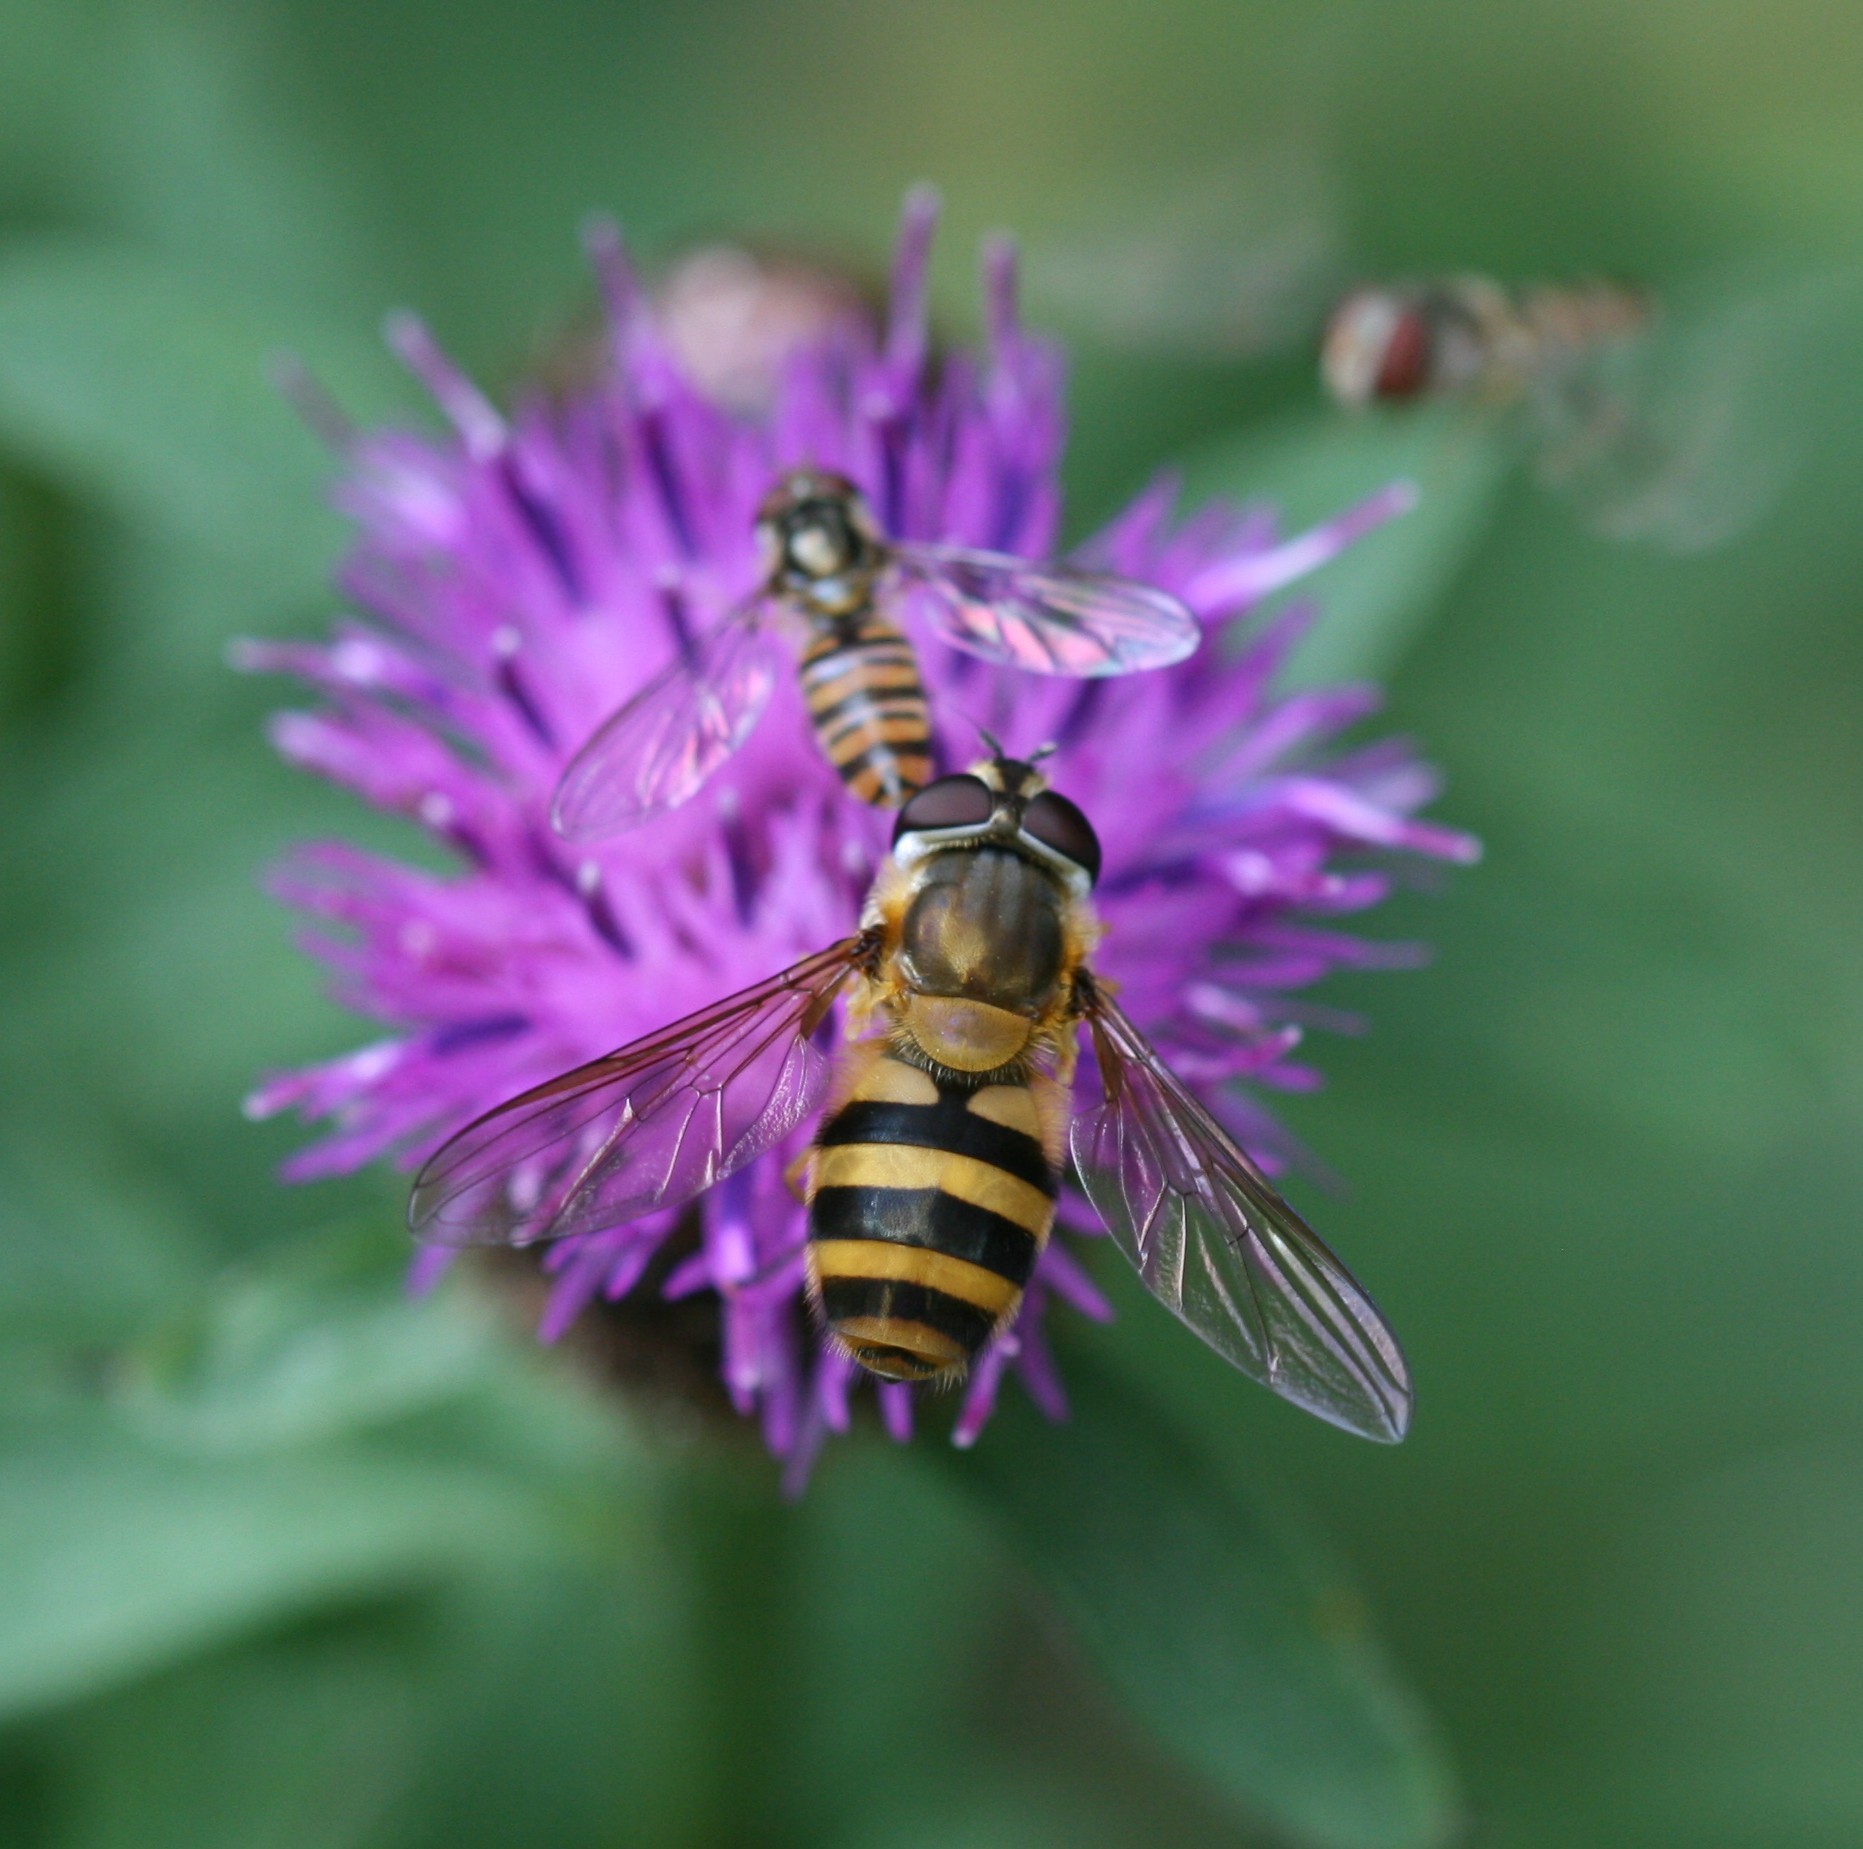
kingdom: Animalia
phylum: Arthropoda
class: Insecta
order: Diptera
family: Syrphidae
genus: Epistrophe
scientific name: Epistrophe grossulariae
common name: Black-horned smoothtail
